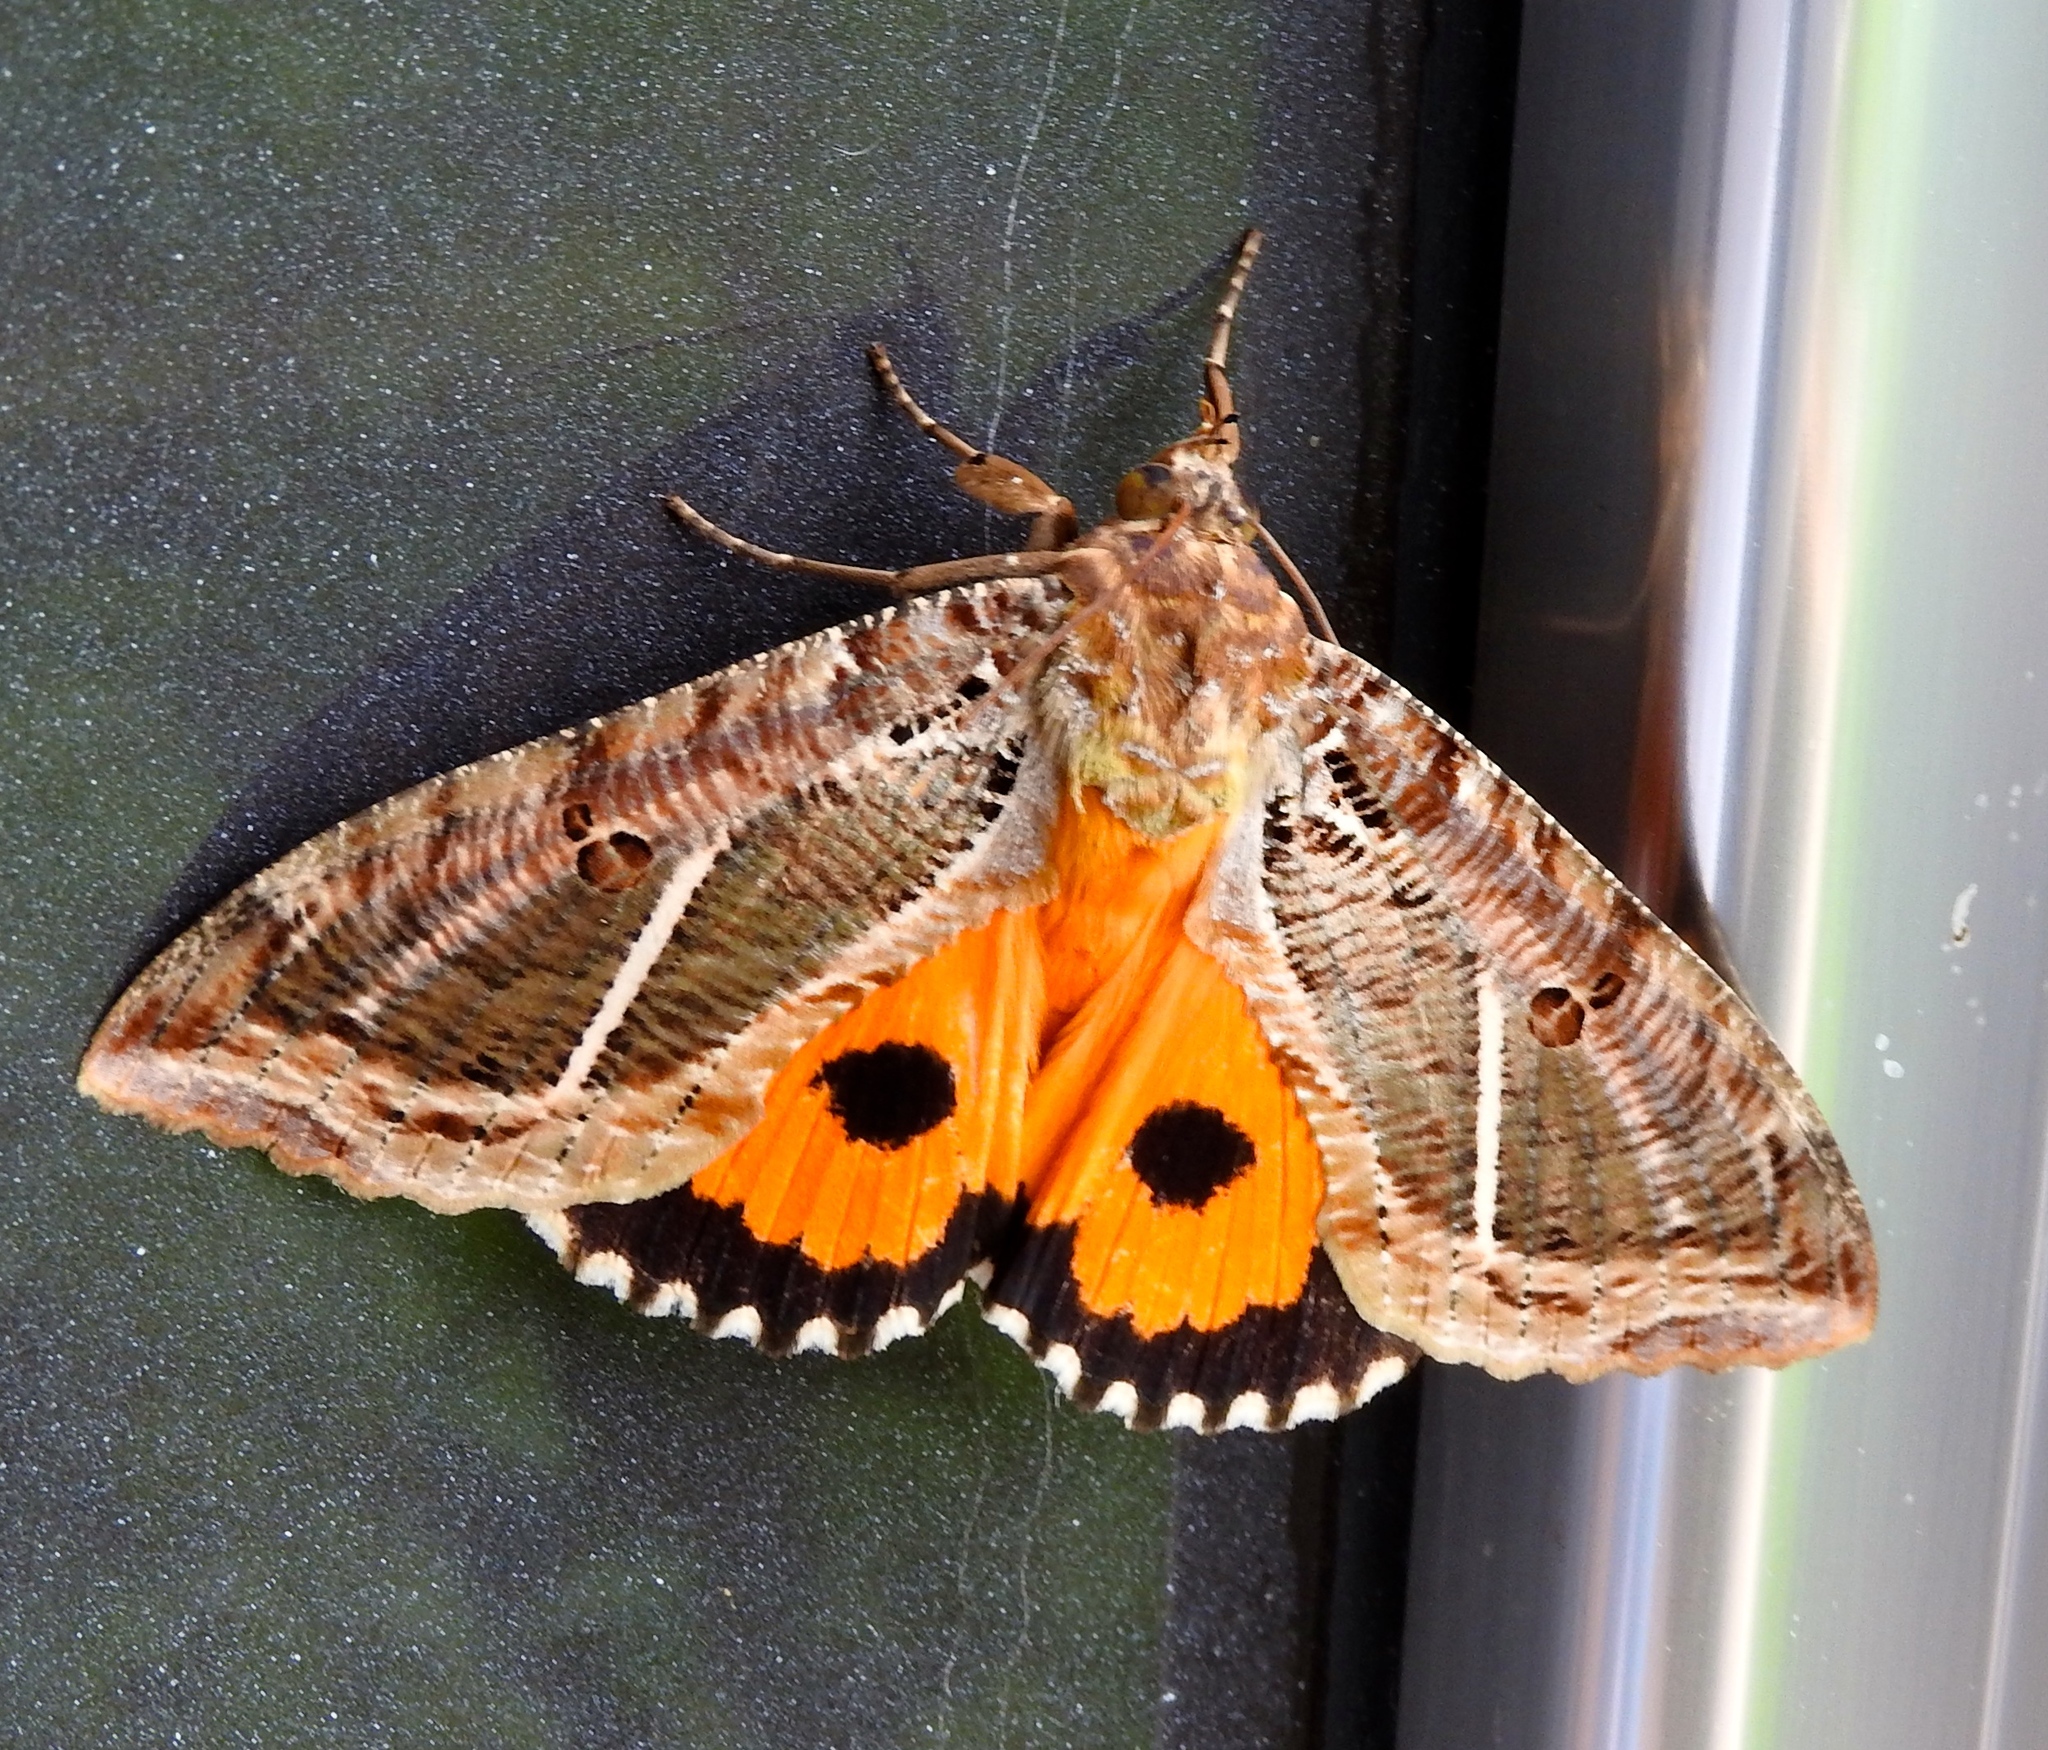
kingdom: Animalia
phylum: Arthropoda
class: Insecta
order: Lepidoptera
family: Erebidae
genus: Eudocima
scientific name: Eudocima apta
